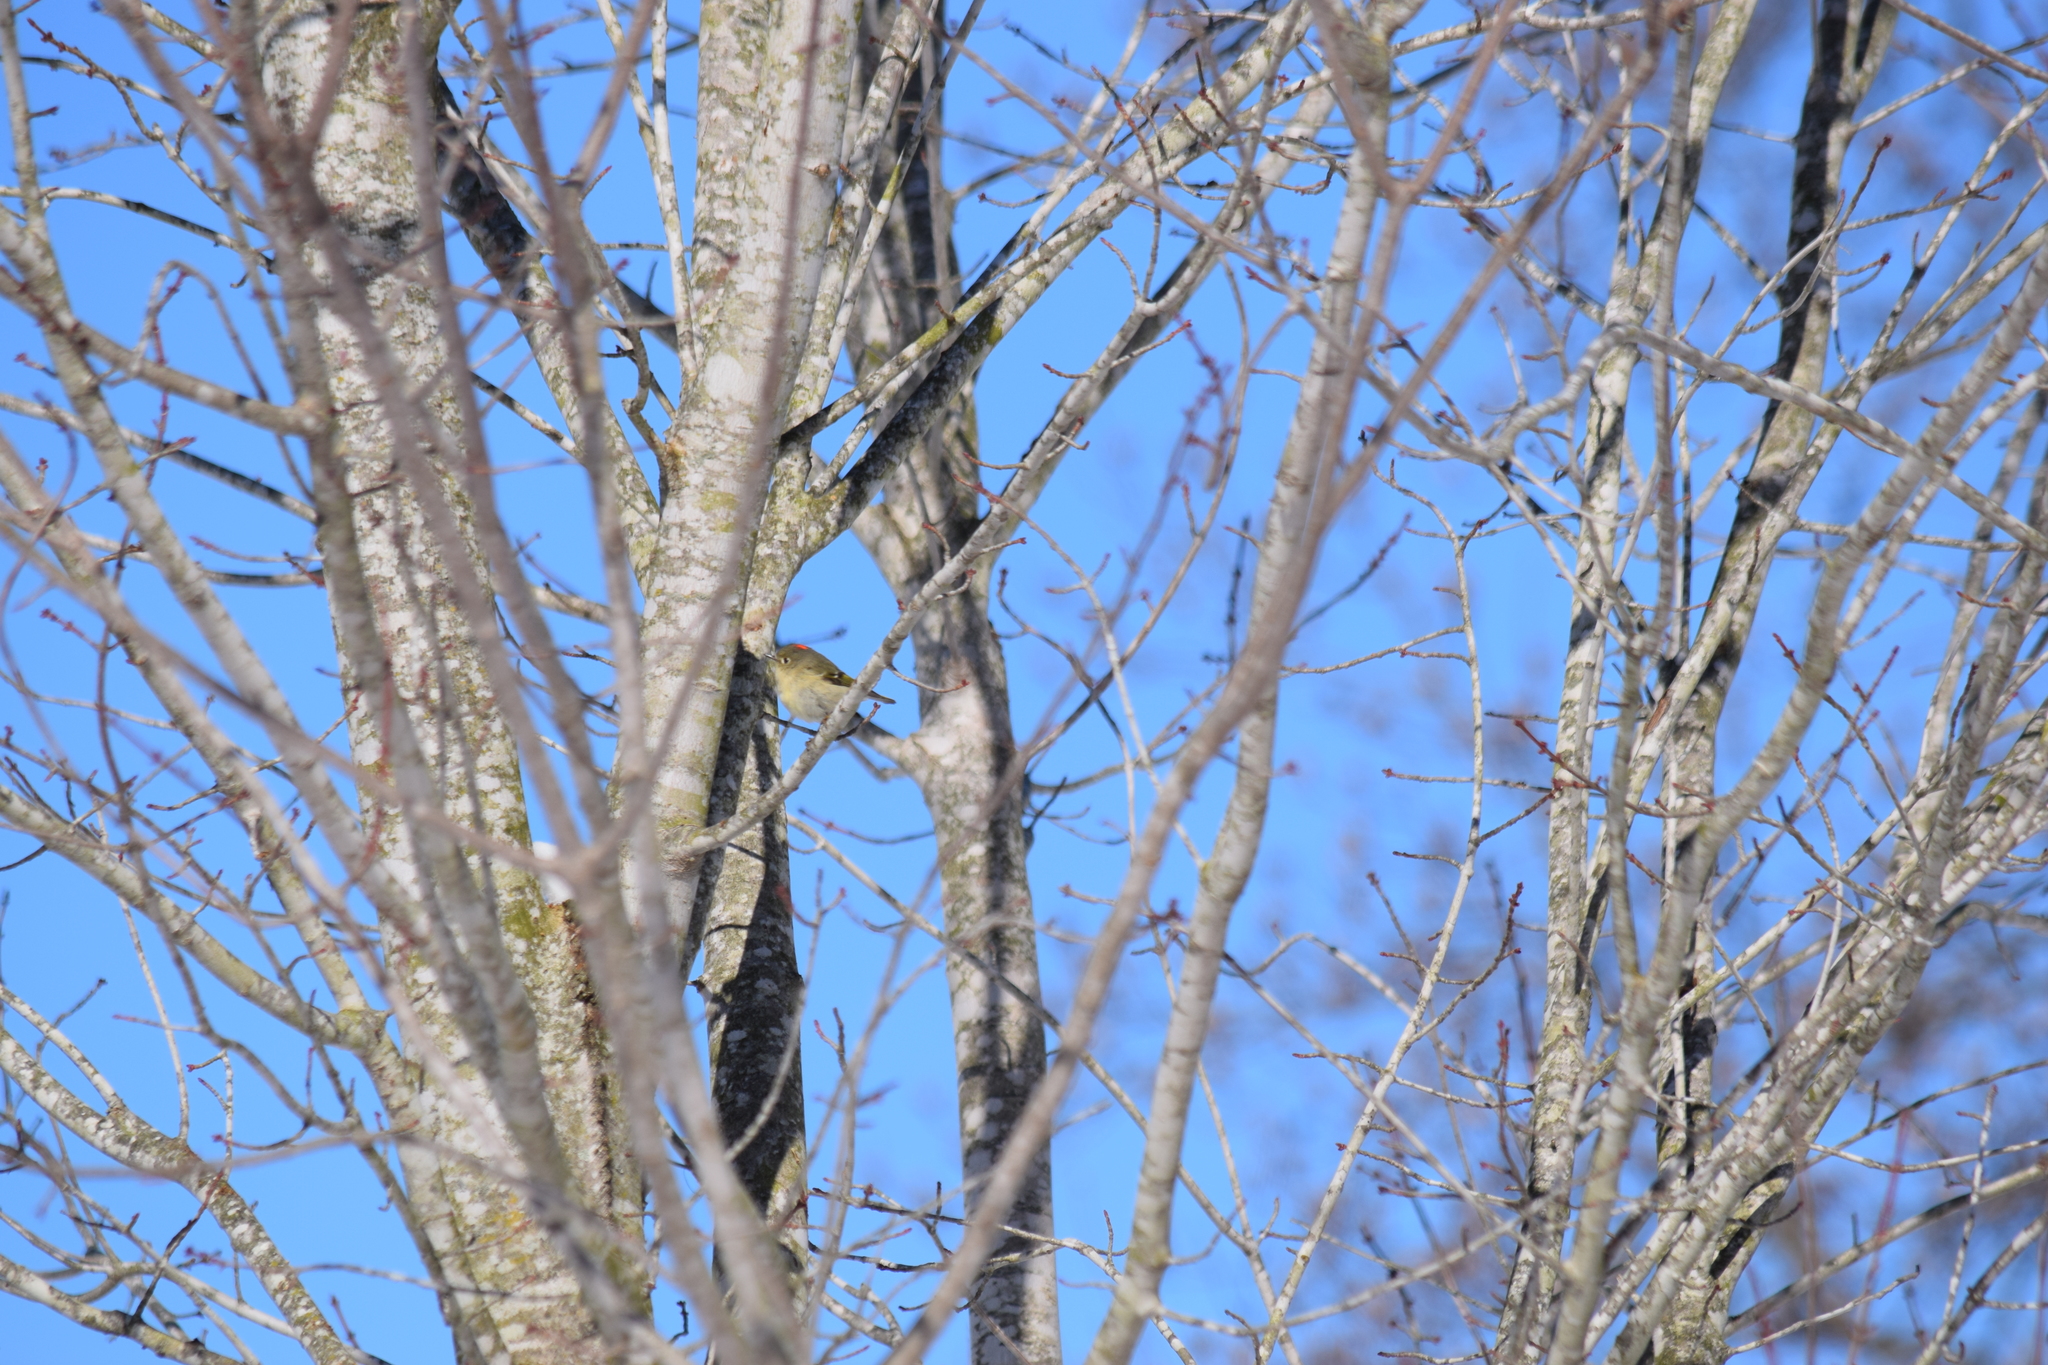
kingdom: Animalia
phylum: Chordata
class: Aves
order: Passeriformes
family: Regulidae
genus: Regulus
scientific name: Regulus calendula
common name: Ruby-crowned kinglet
